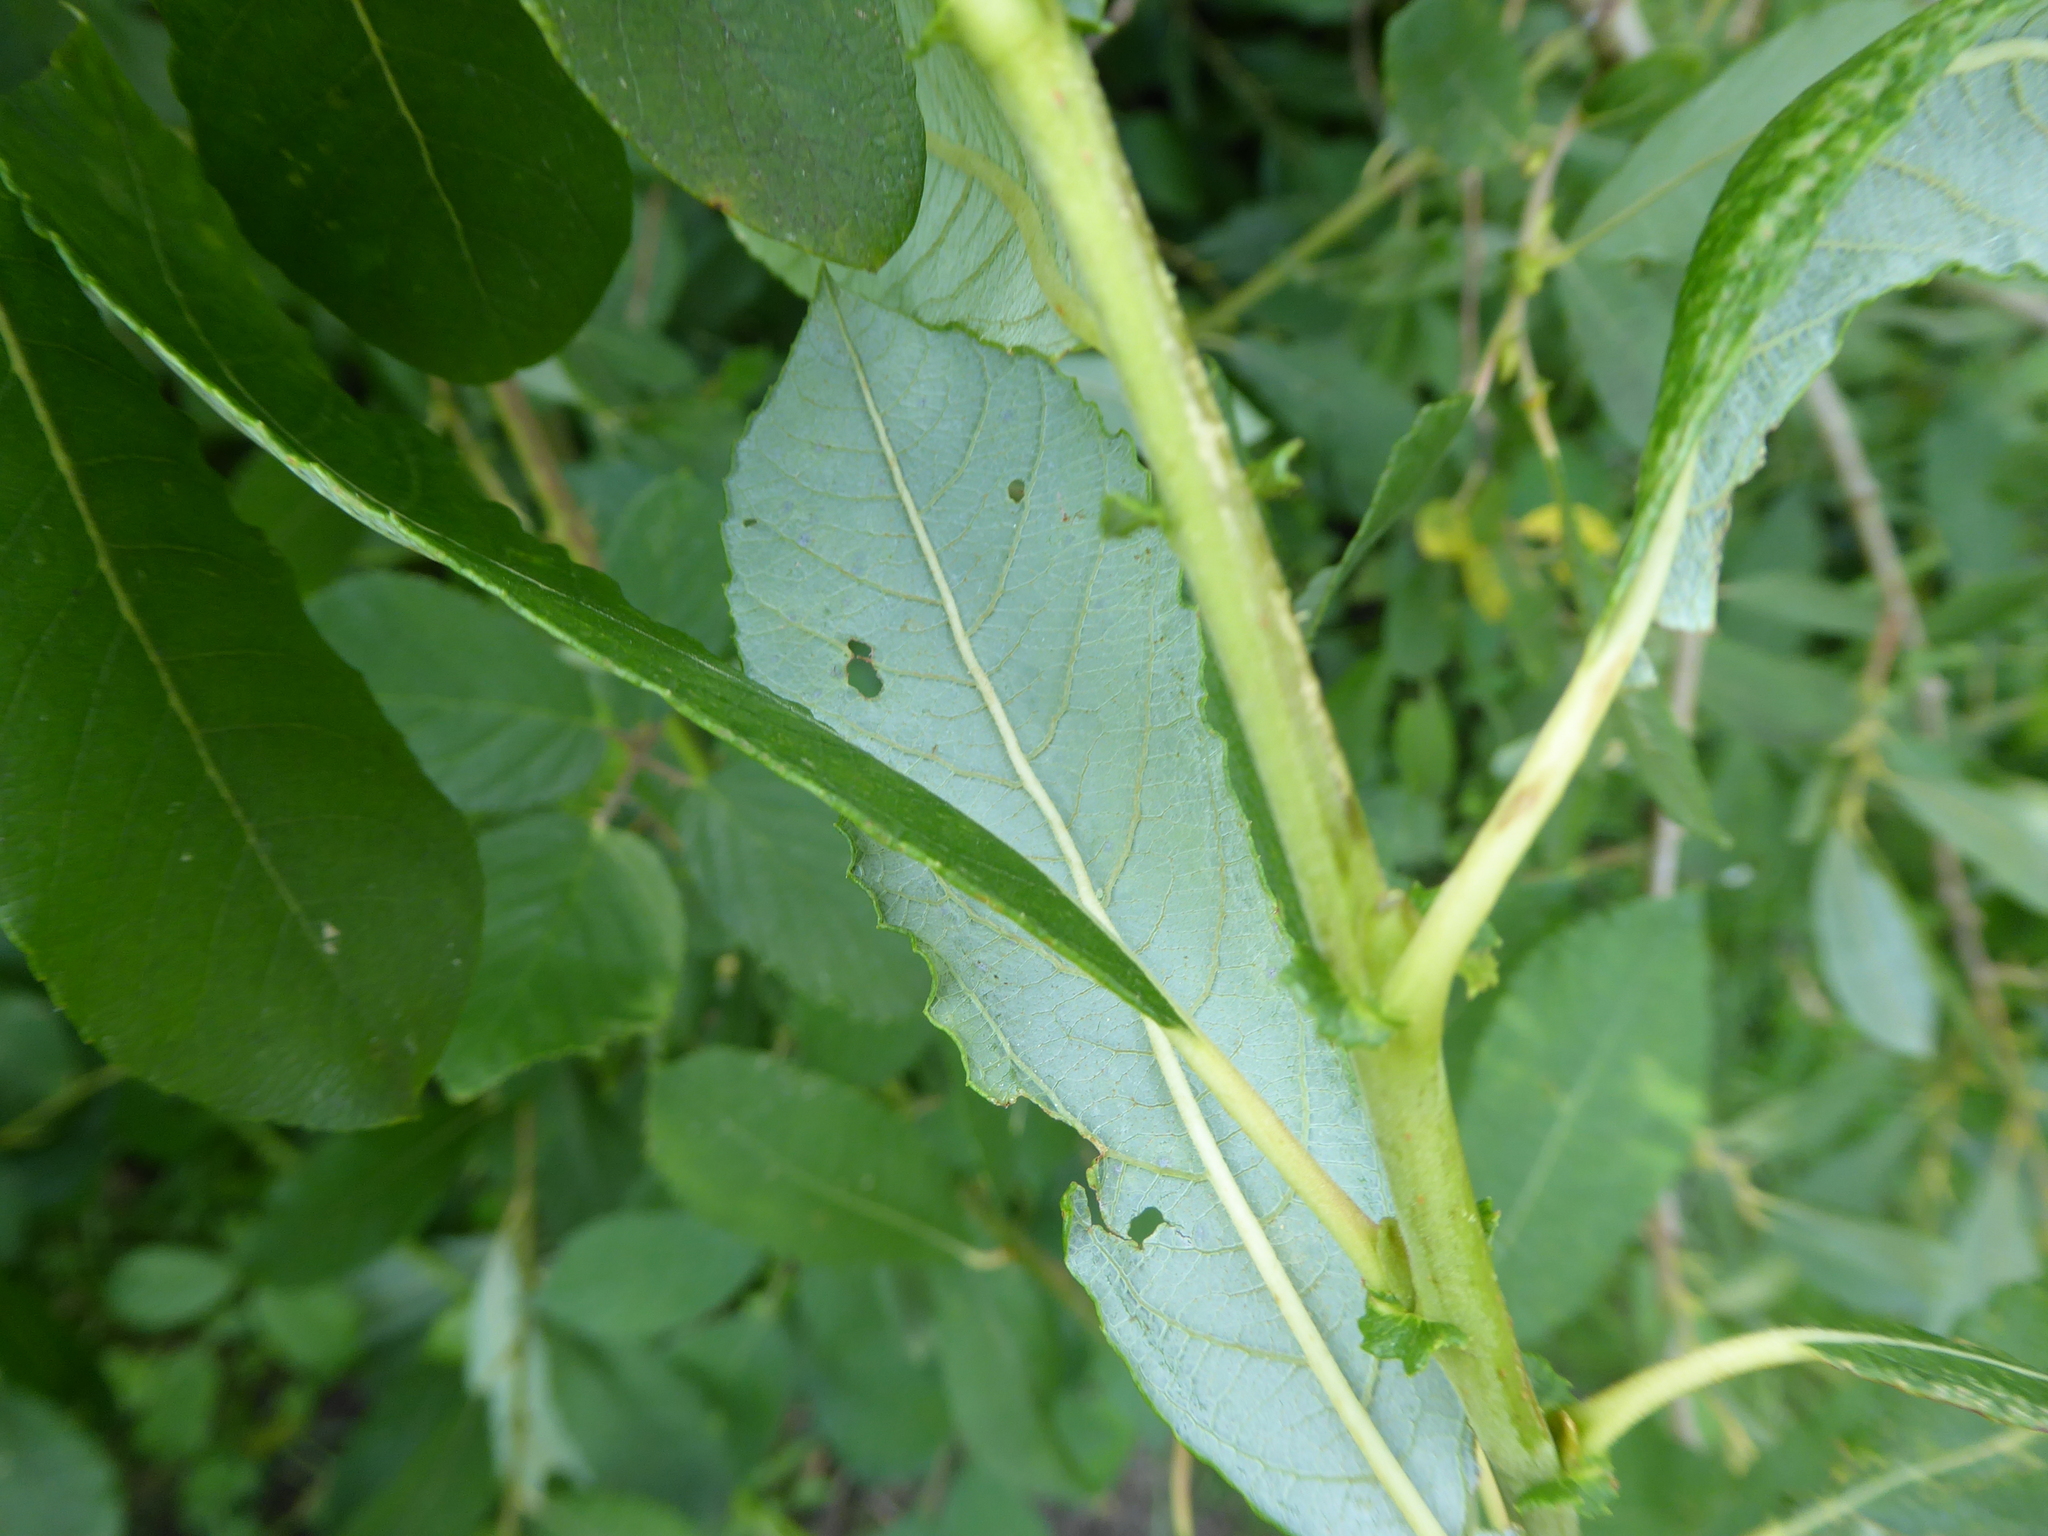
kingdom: Plantae
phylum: Tracheophyta
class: Magnoliopsida
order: Malpighiales
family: Salicaceae
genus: Salix
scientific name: Salix atrocinerea
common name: Rusty willow
